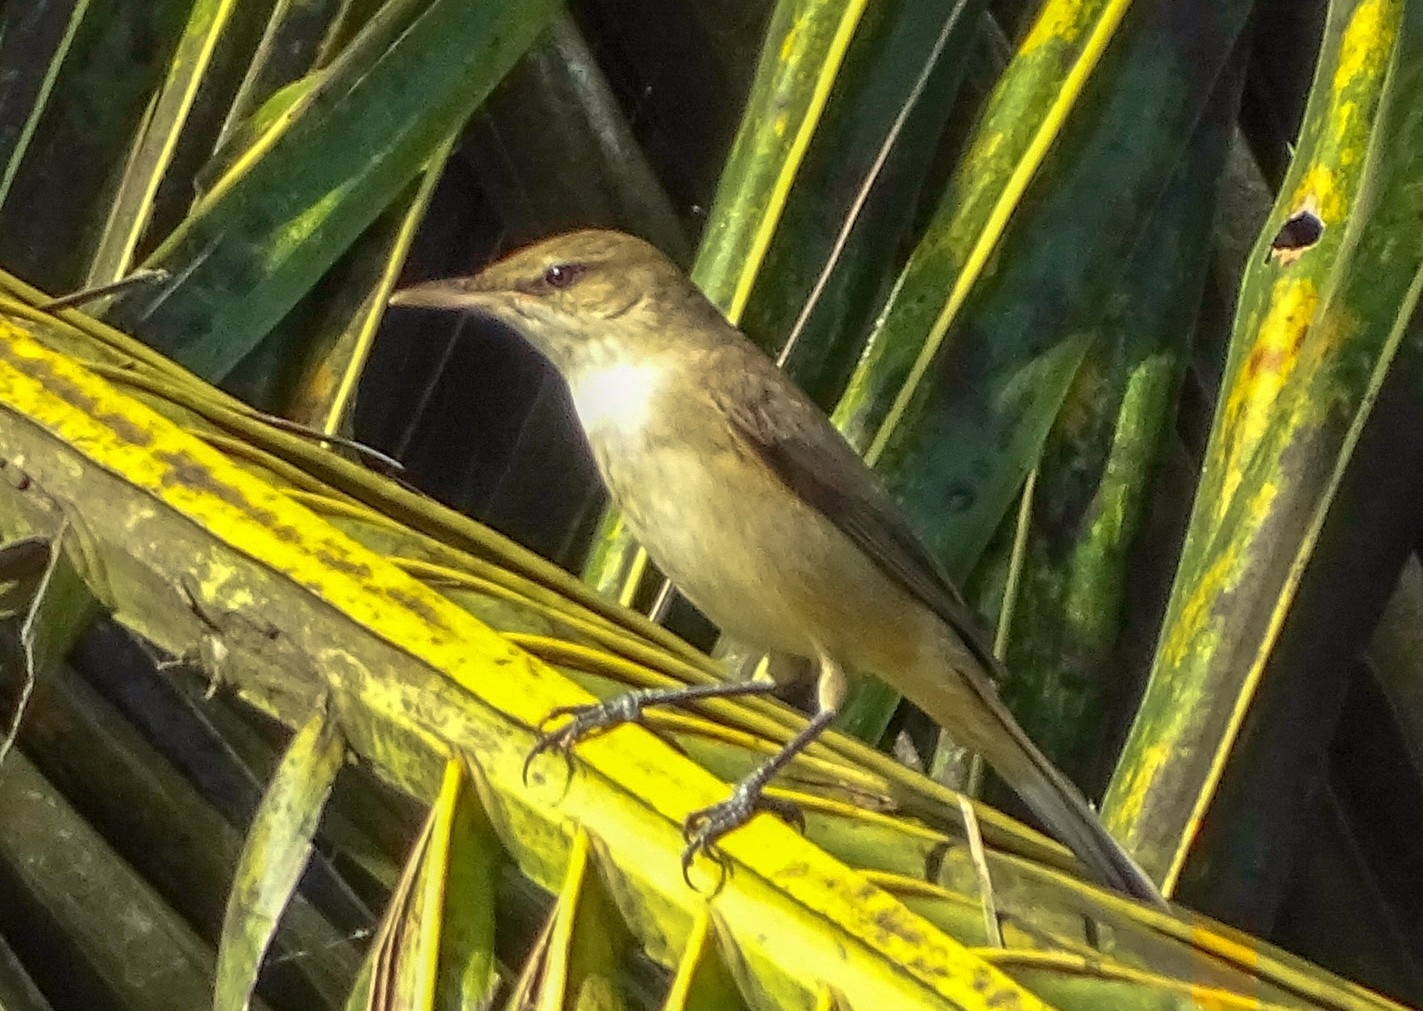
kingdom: Animalia
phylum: Chordata
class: Aves
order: Passeriformes
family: Acrocephalidae
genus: Acrocephalus
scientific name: Acrocephalus stentoreus
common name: Clamorous reed warbler
